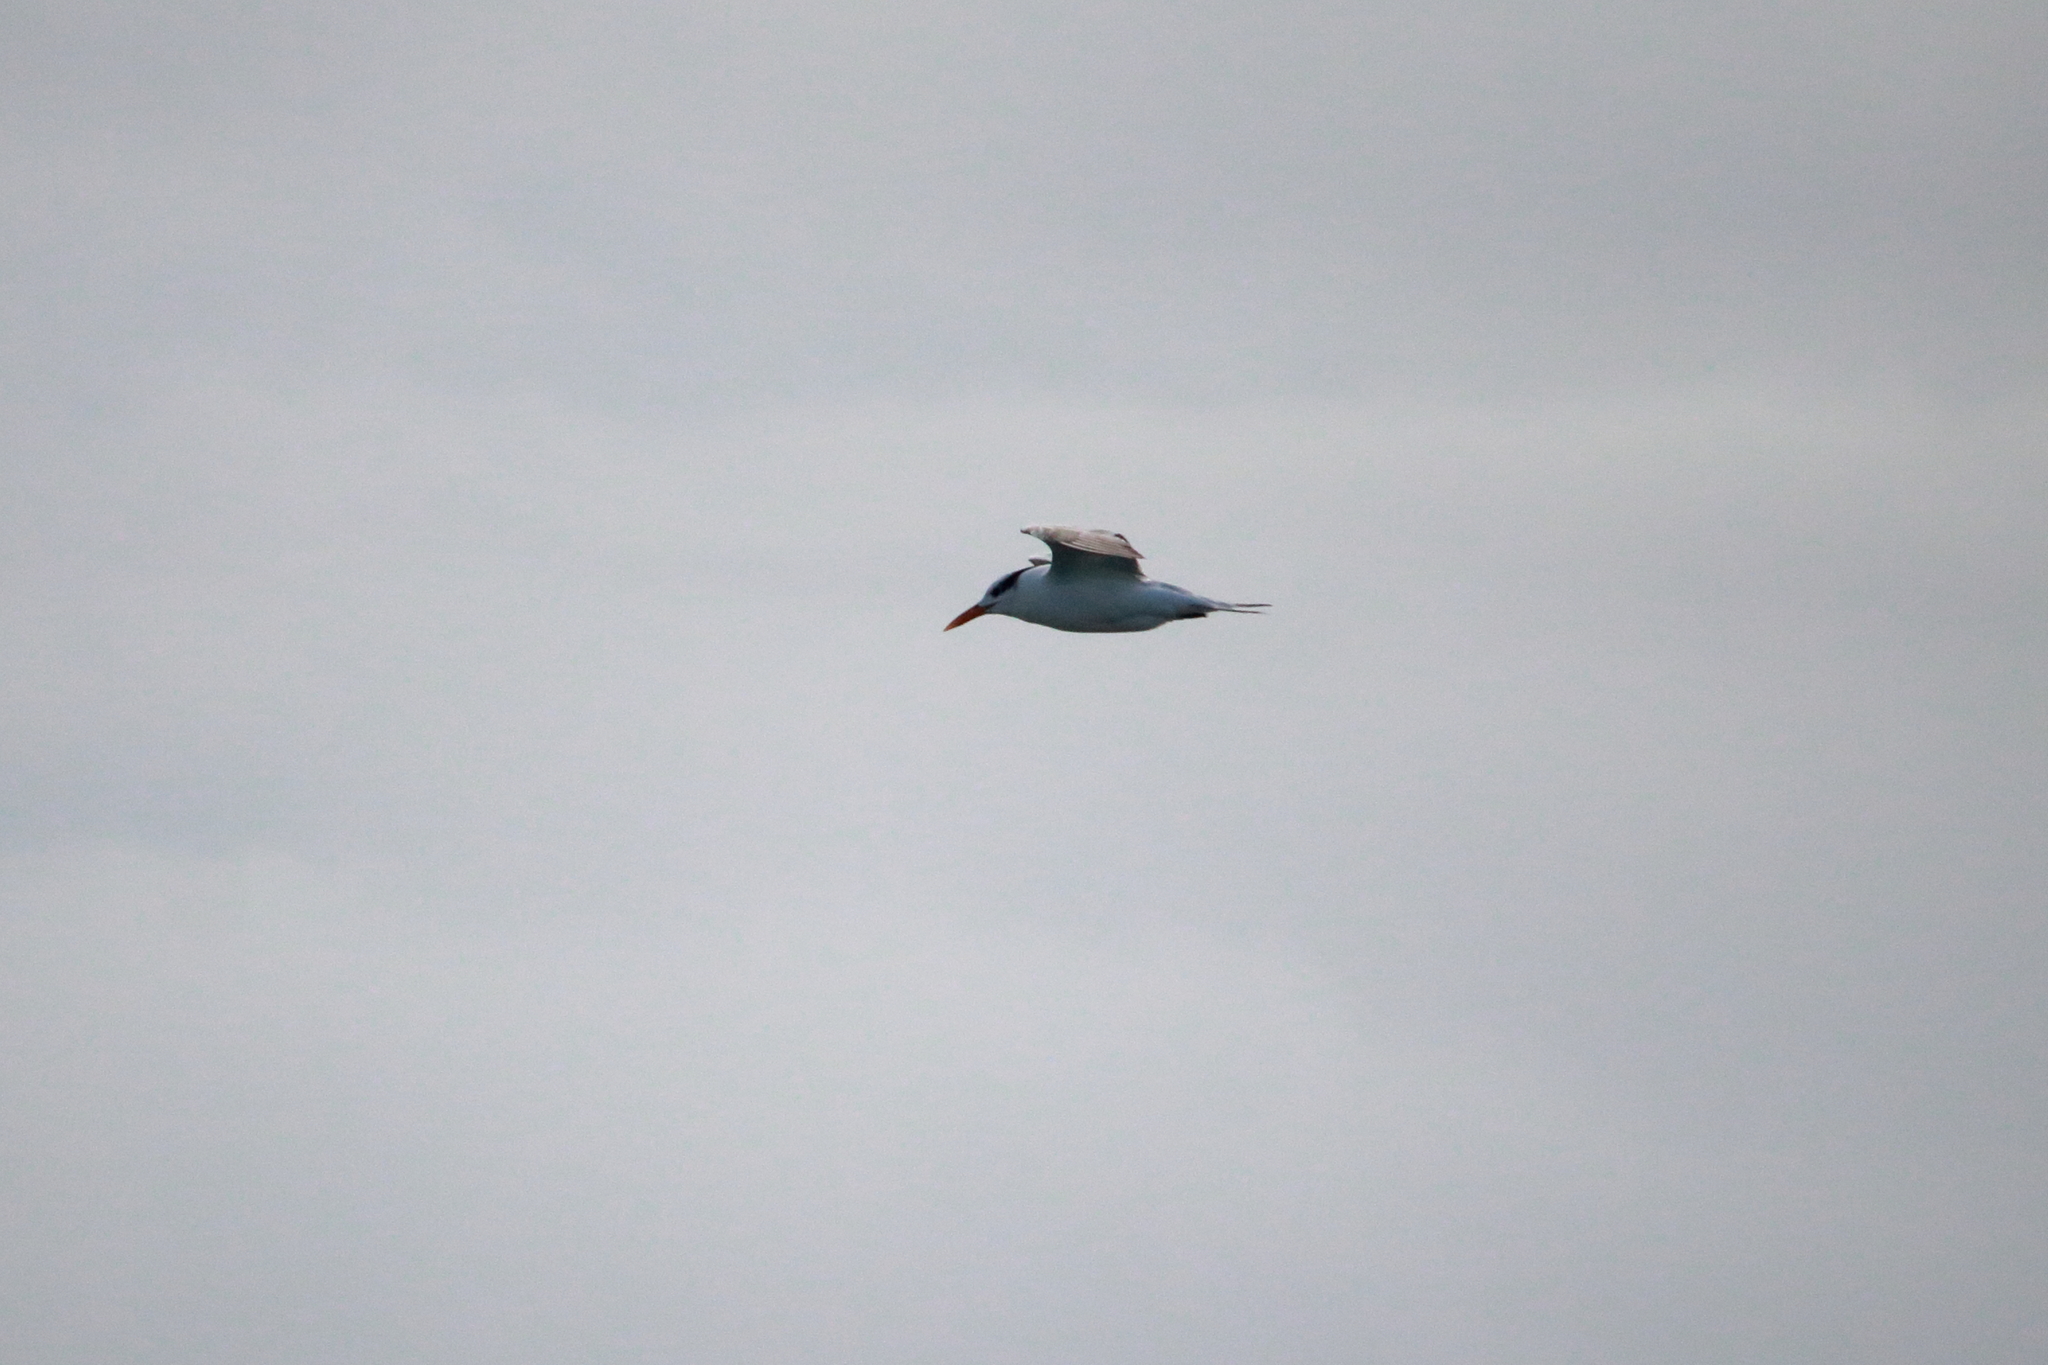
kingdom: Animalia
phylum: Chordata
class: Aves
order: Charadriiformes
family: Laridae
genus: Thalasseus
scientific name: Thalasseus maximus
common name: Royal tern
